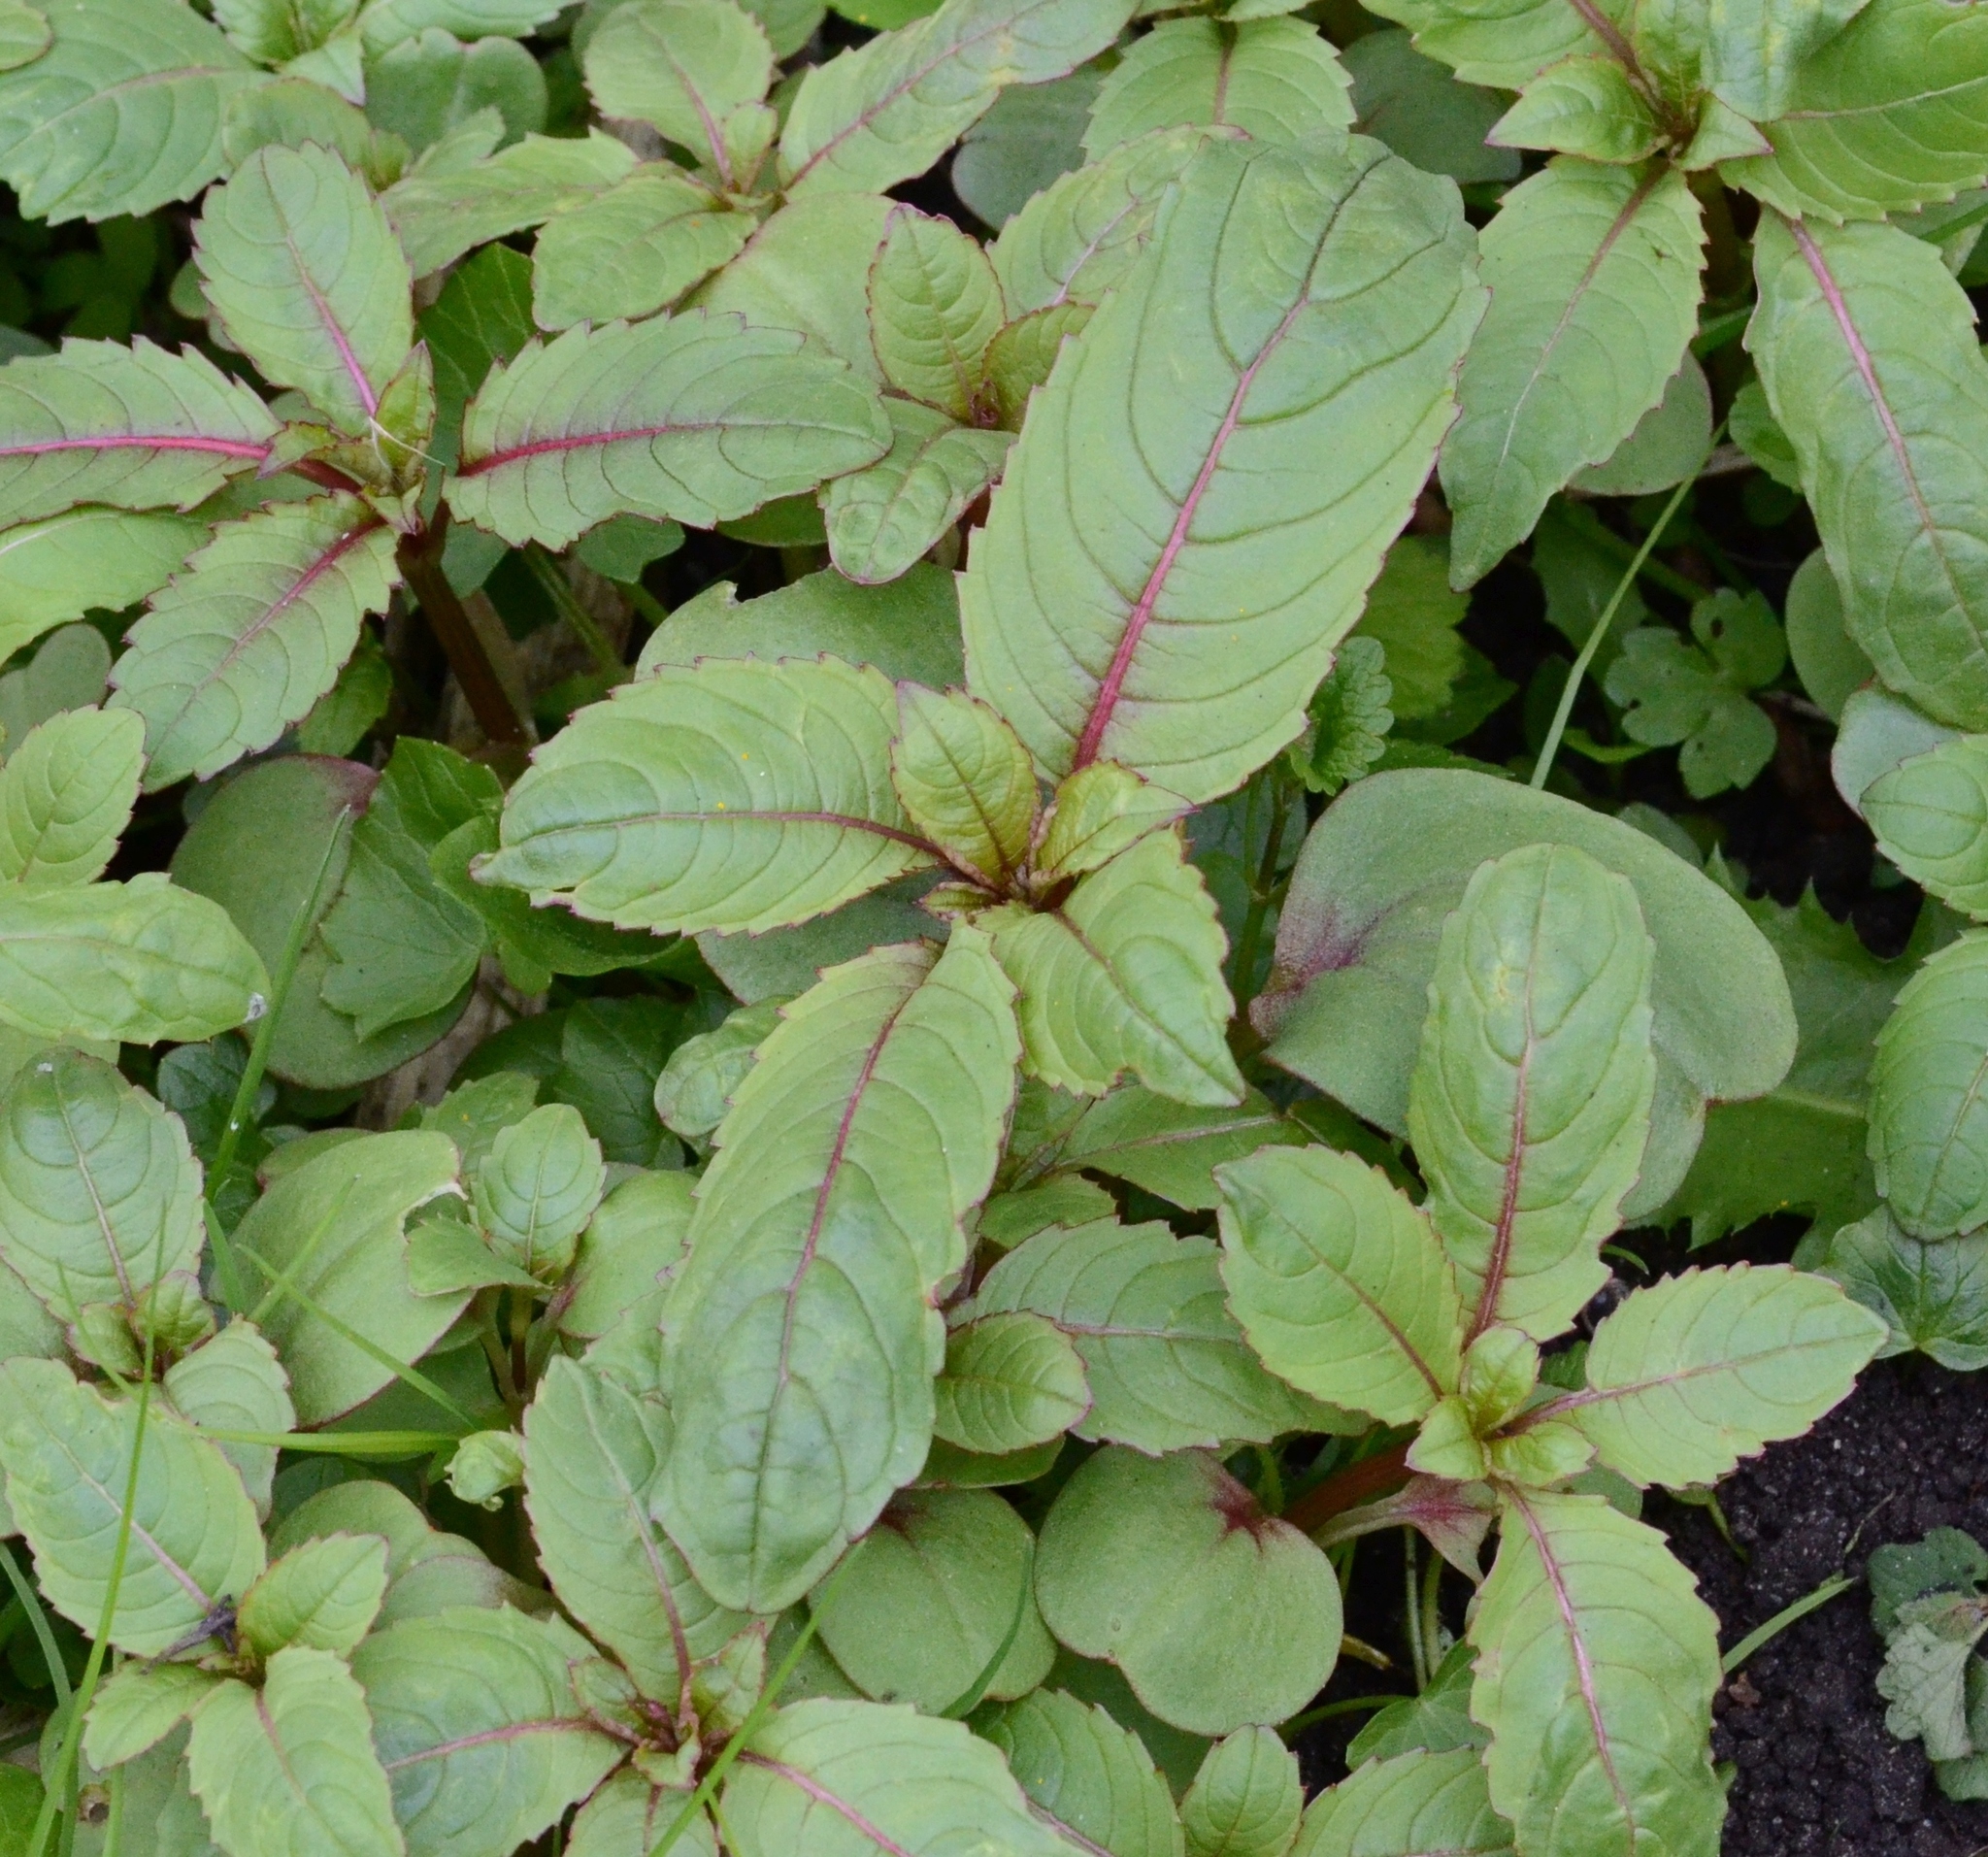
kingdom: Plantae
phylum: Tracheophyta
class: Magnoliopsida
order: Ericales
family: Balsaminaceae
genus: Impatiens
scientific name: Impatiens glandulifera
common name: Himalayan balsam
